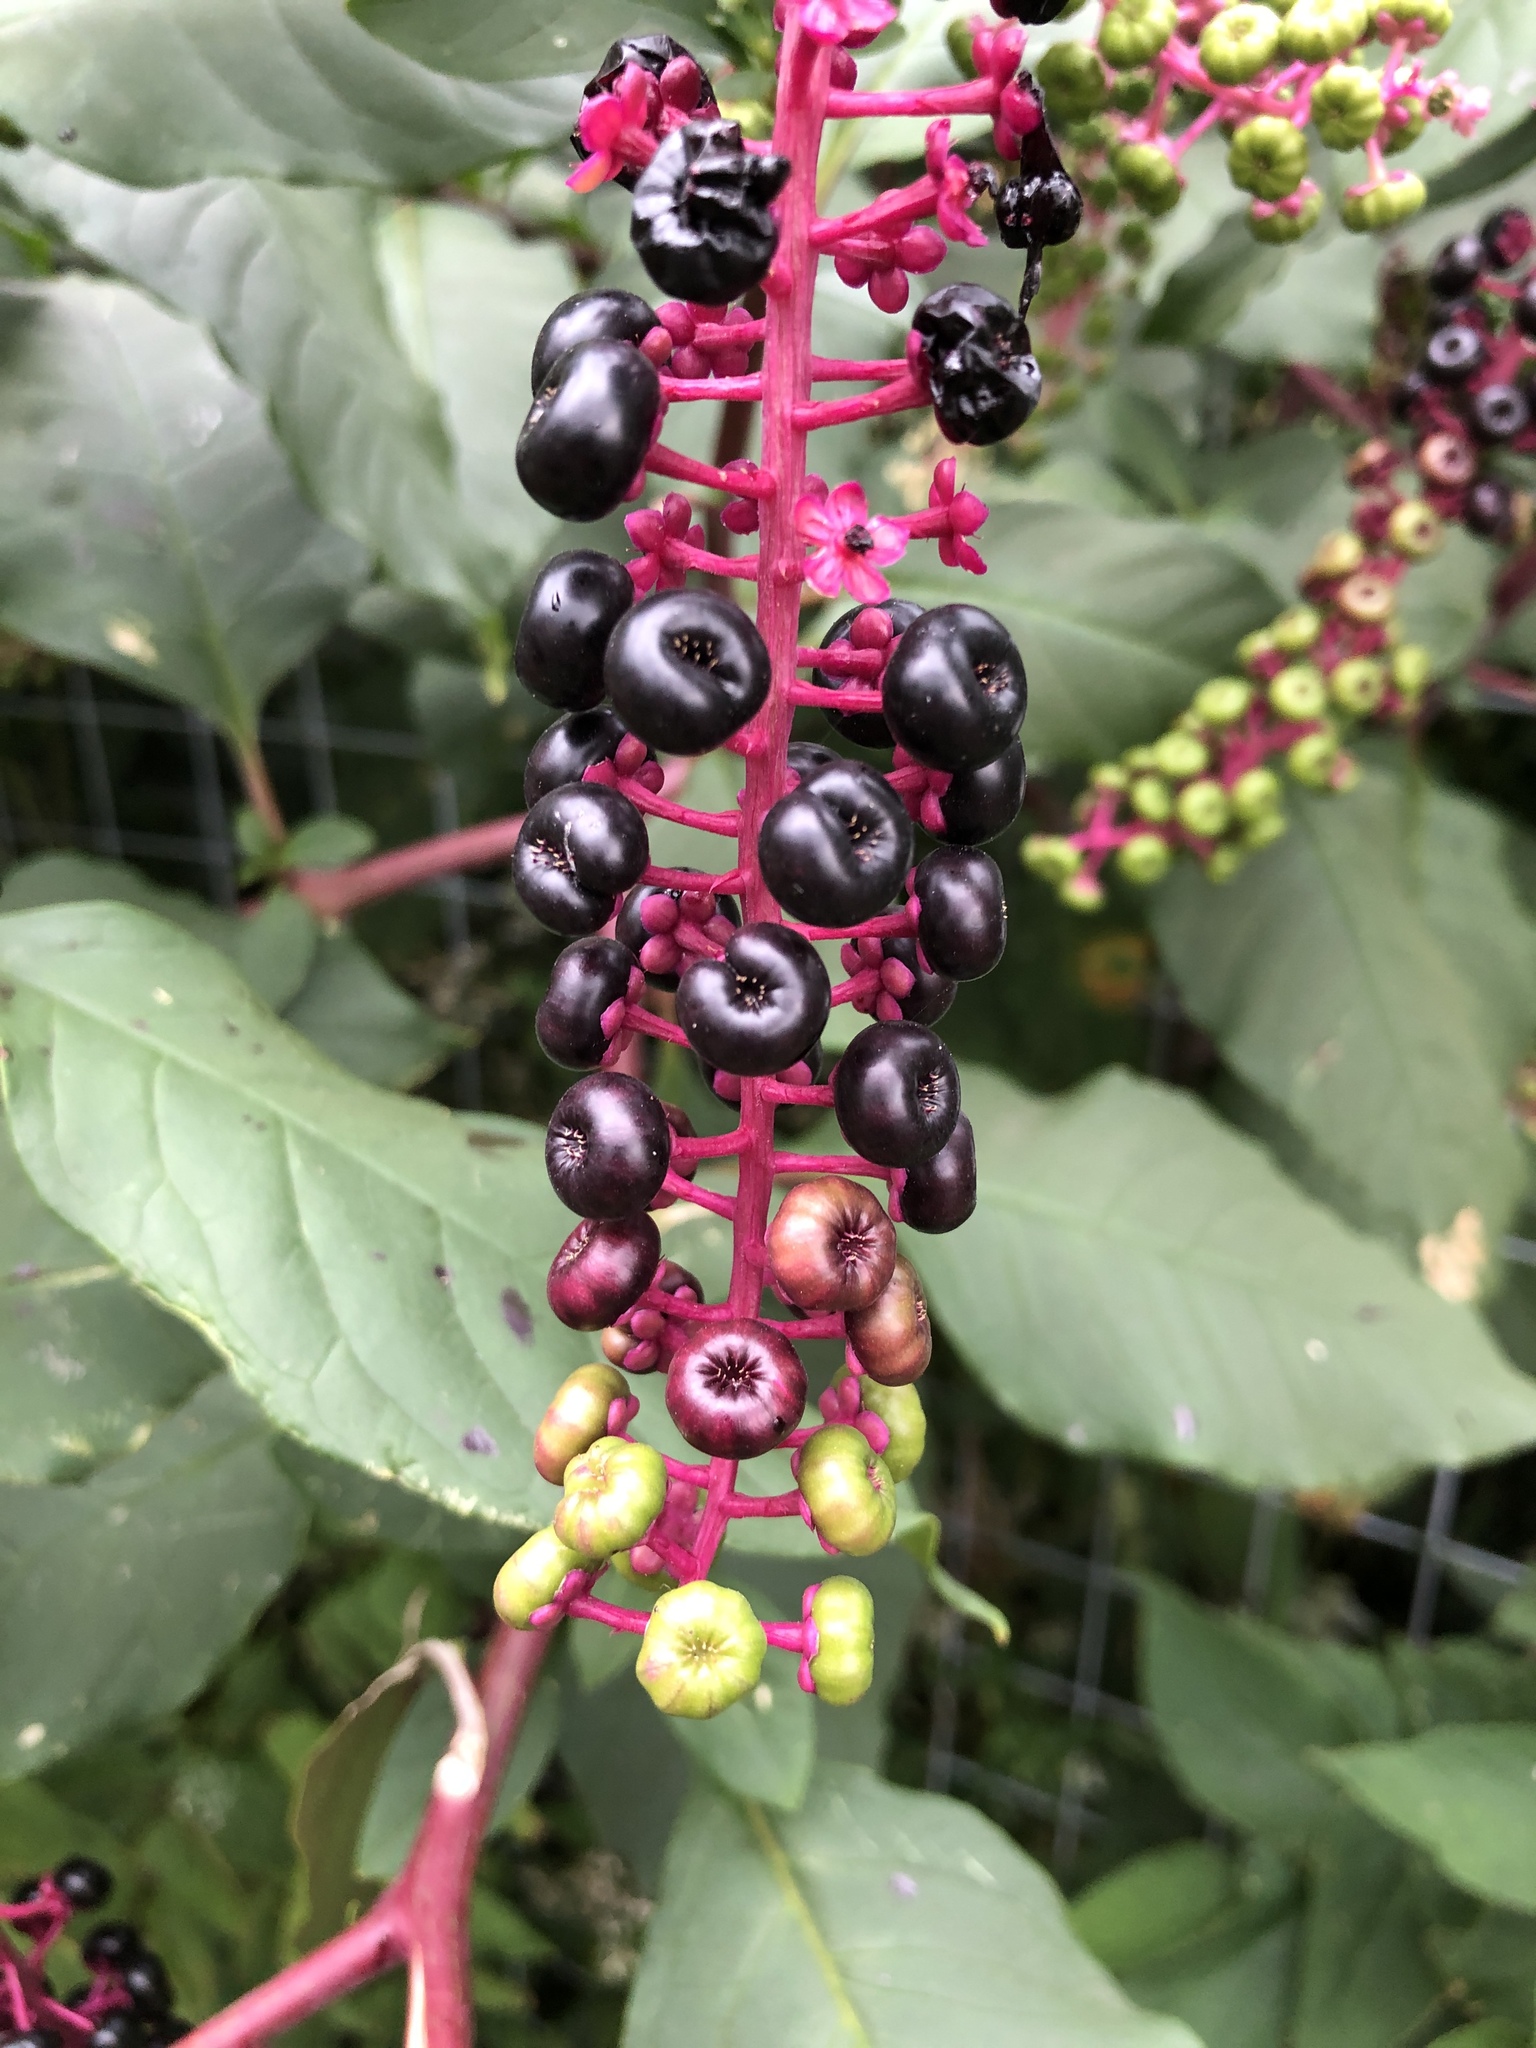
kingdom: Plantae
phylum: Tracheophyta
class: Magnoliopsida
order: Caryophyllales
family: Phytolaccaceae
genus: Phytolacca
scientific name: Phytolacca americana
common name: American pokeweed
